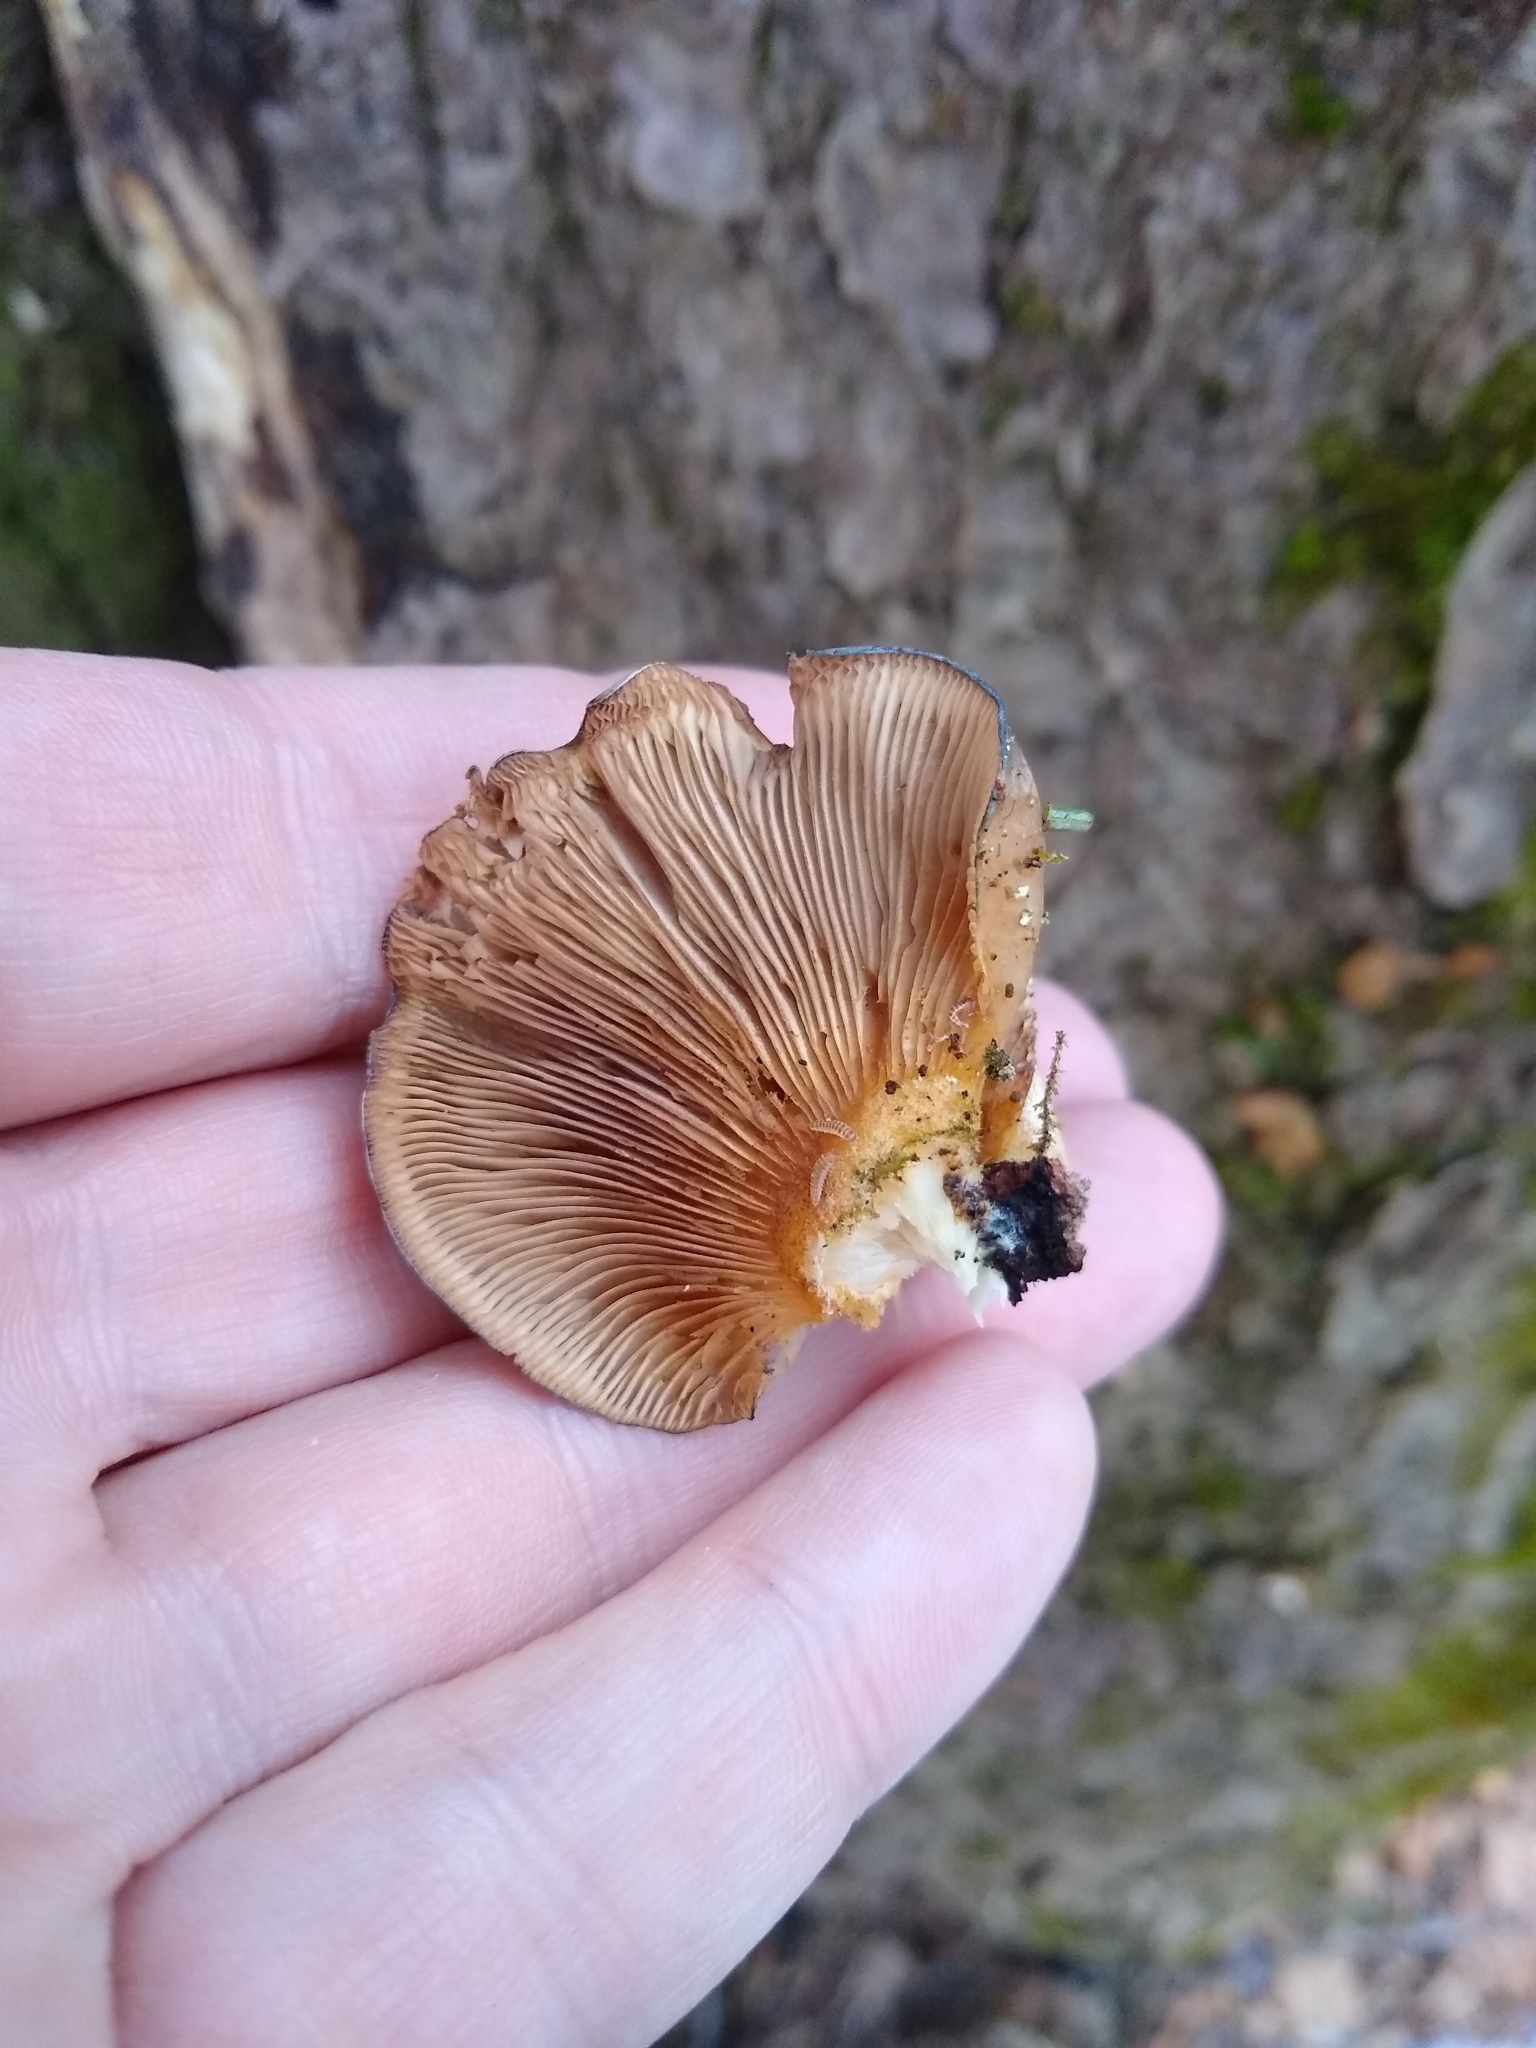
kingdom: Fungi
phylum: Basidiomycota
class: Agaricomycetes
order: Agaricales
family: Sarcomyxaceae
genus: Sarcomyxa
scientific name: Sarcomyxa serotina
